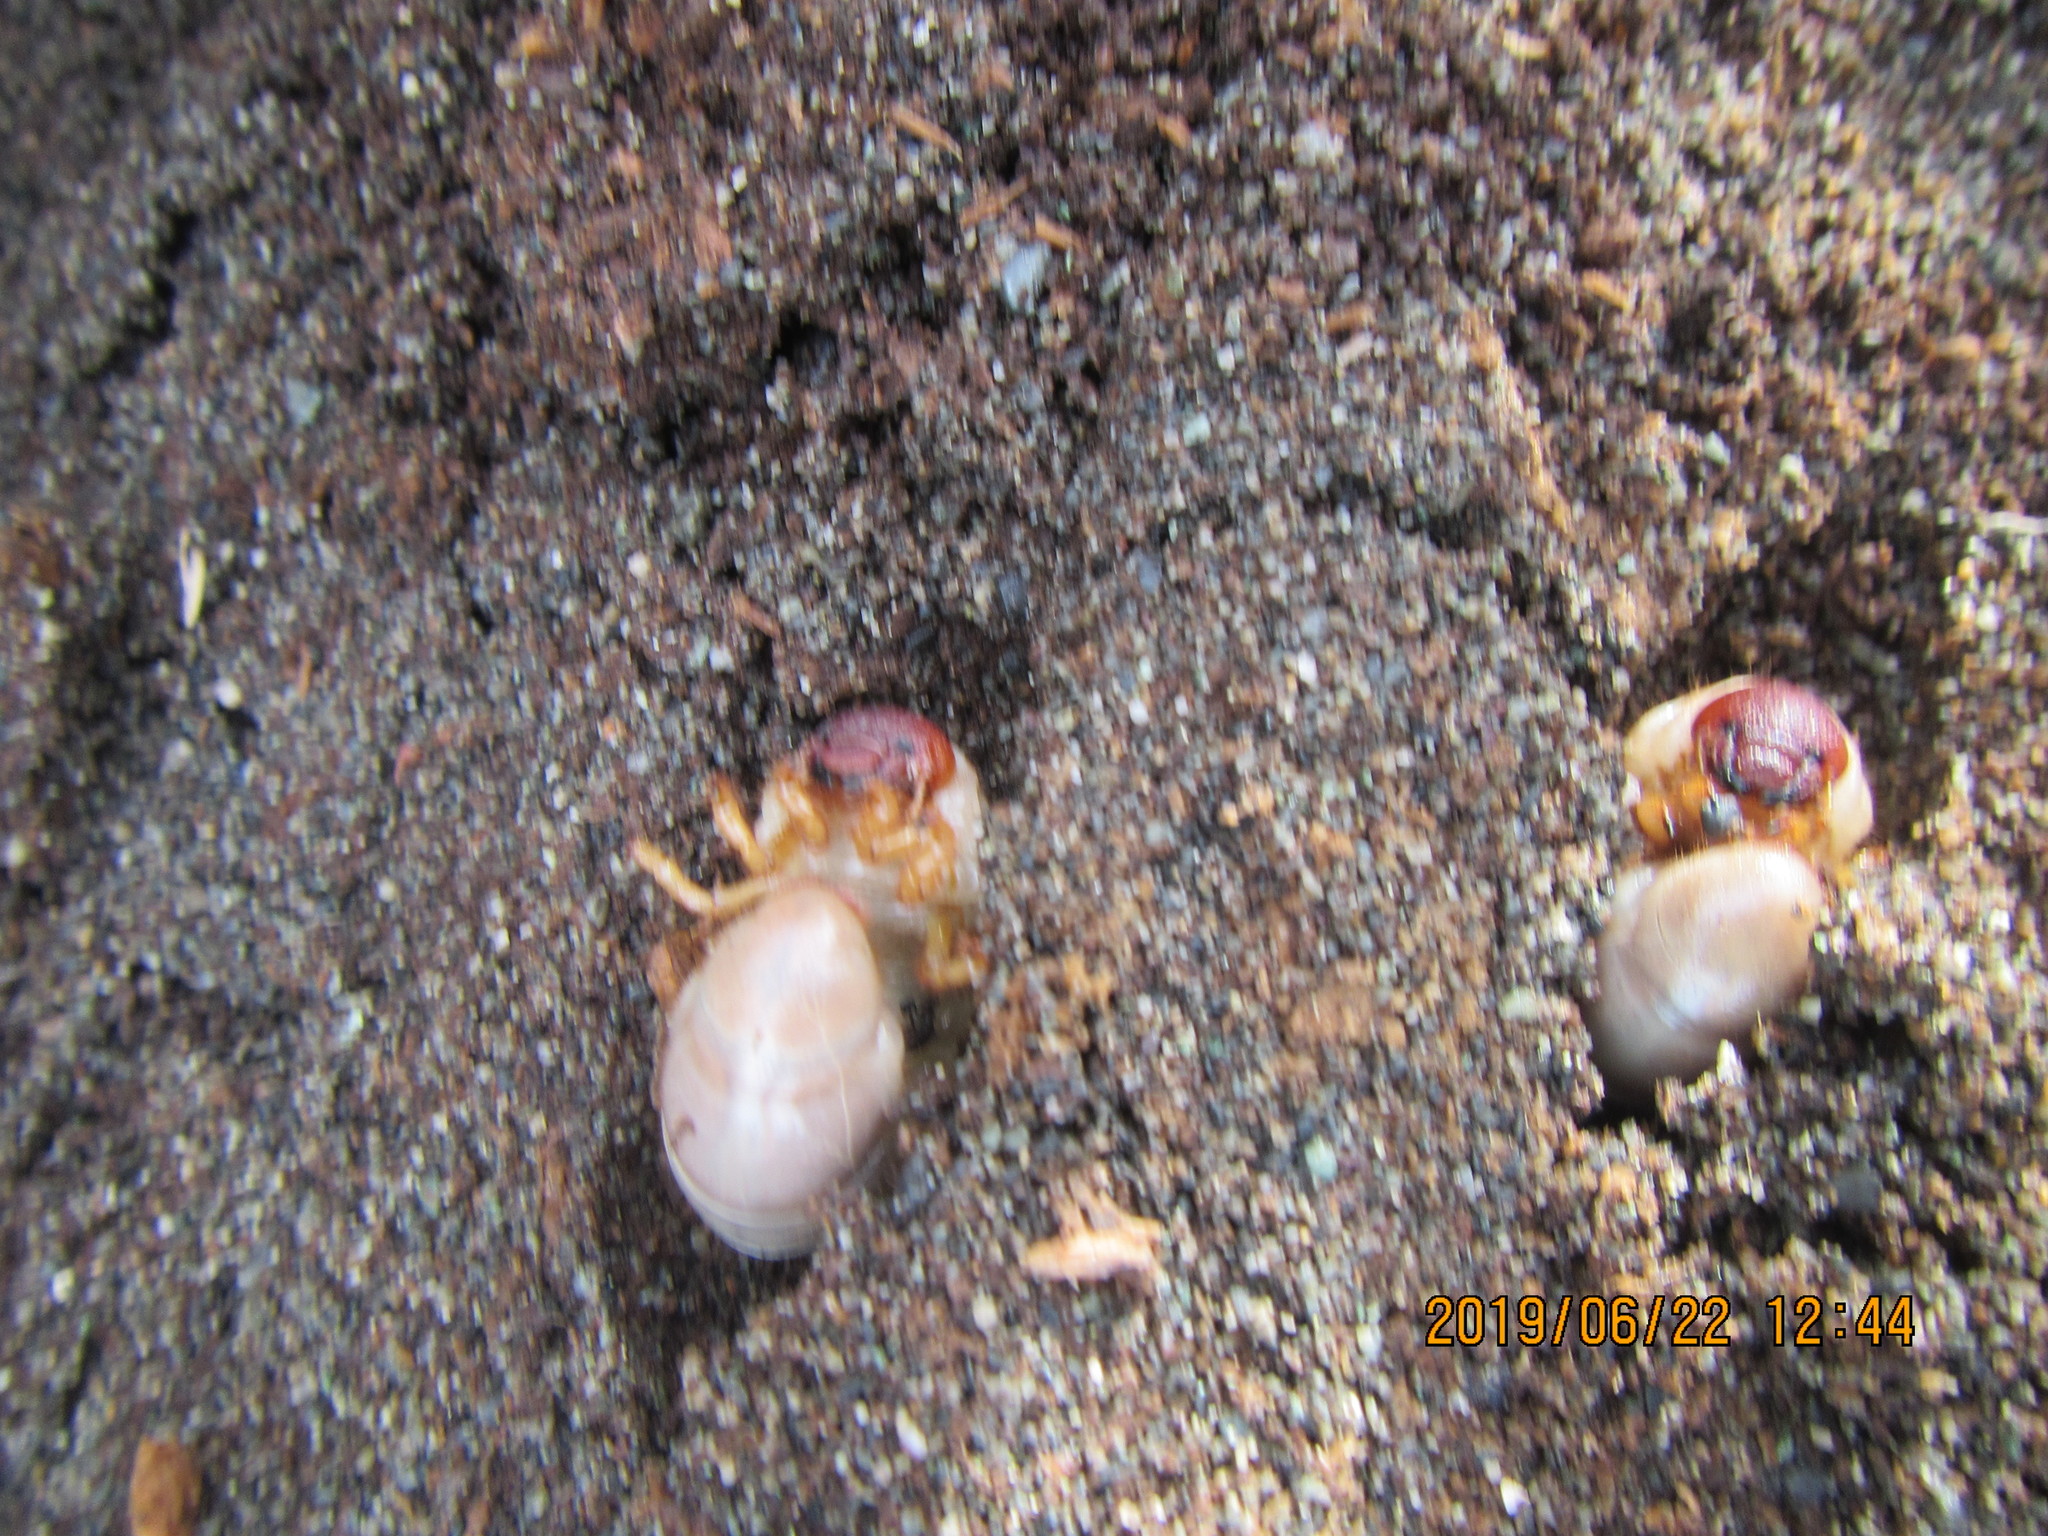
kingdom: Animalia
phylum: Arthropoda
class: Insecta
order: Coleoptera
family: Scarabaeidae
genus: Pericoptus
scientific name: Pericoptus truncatus
